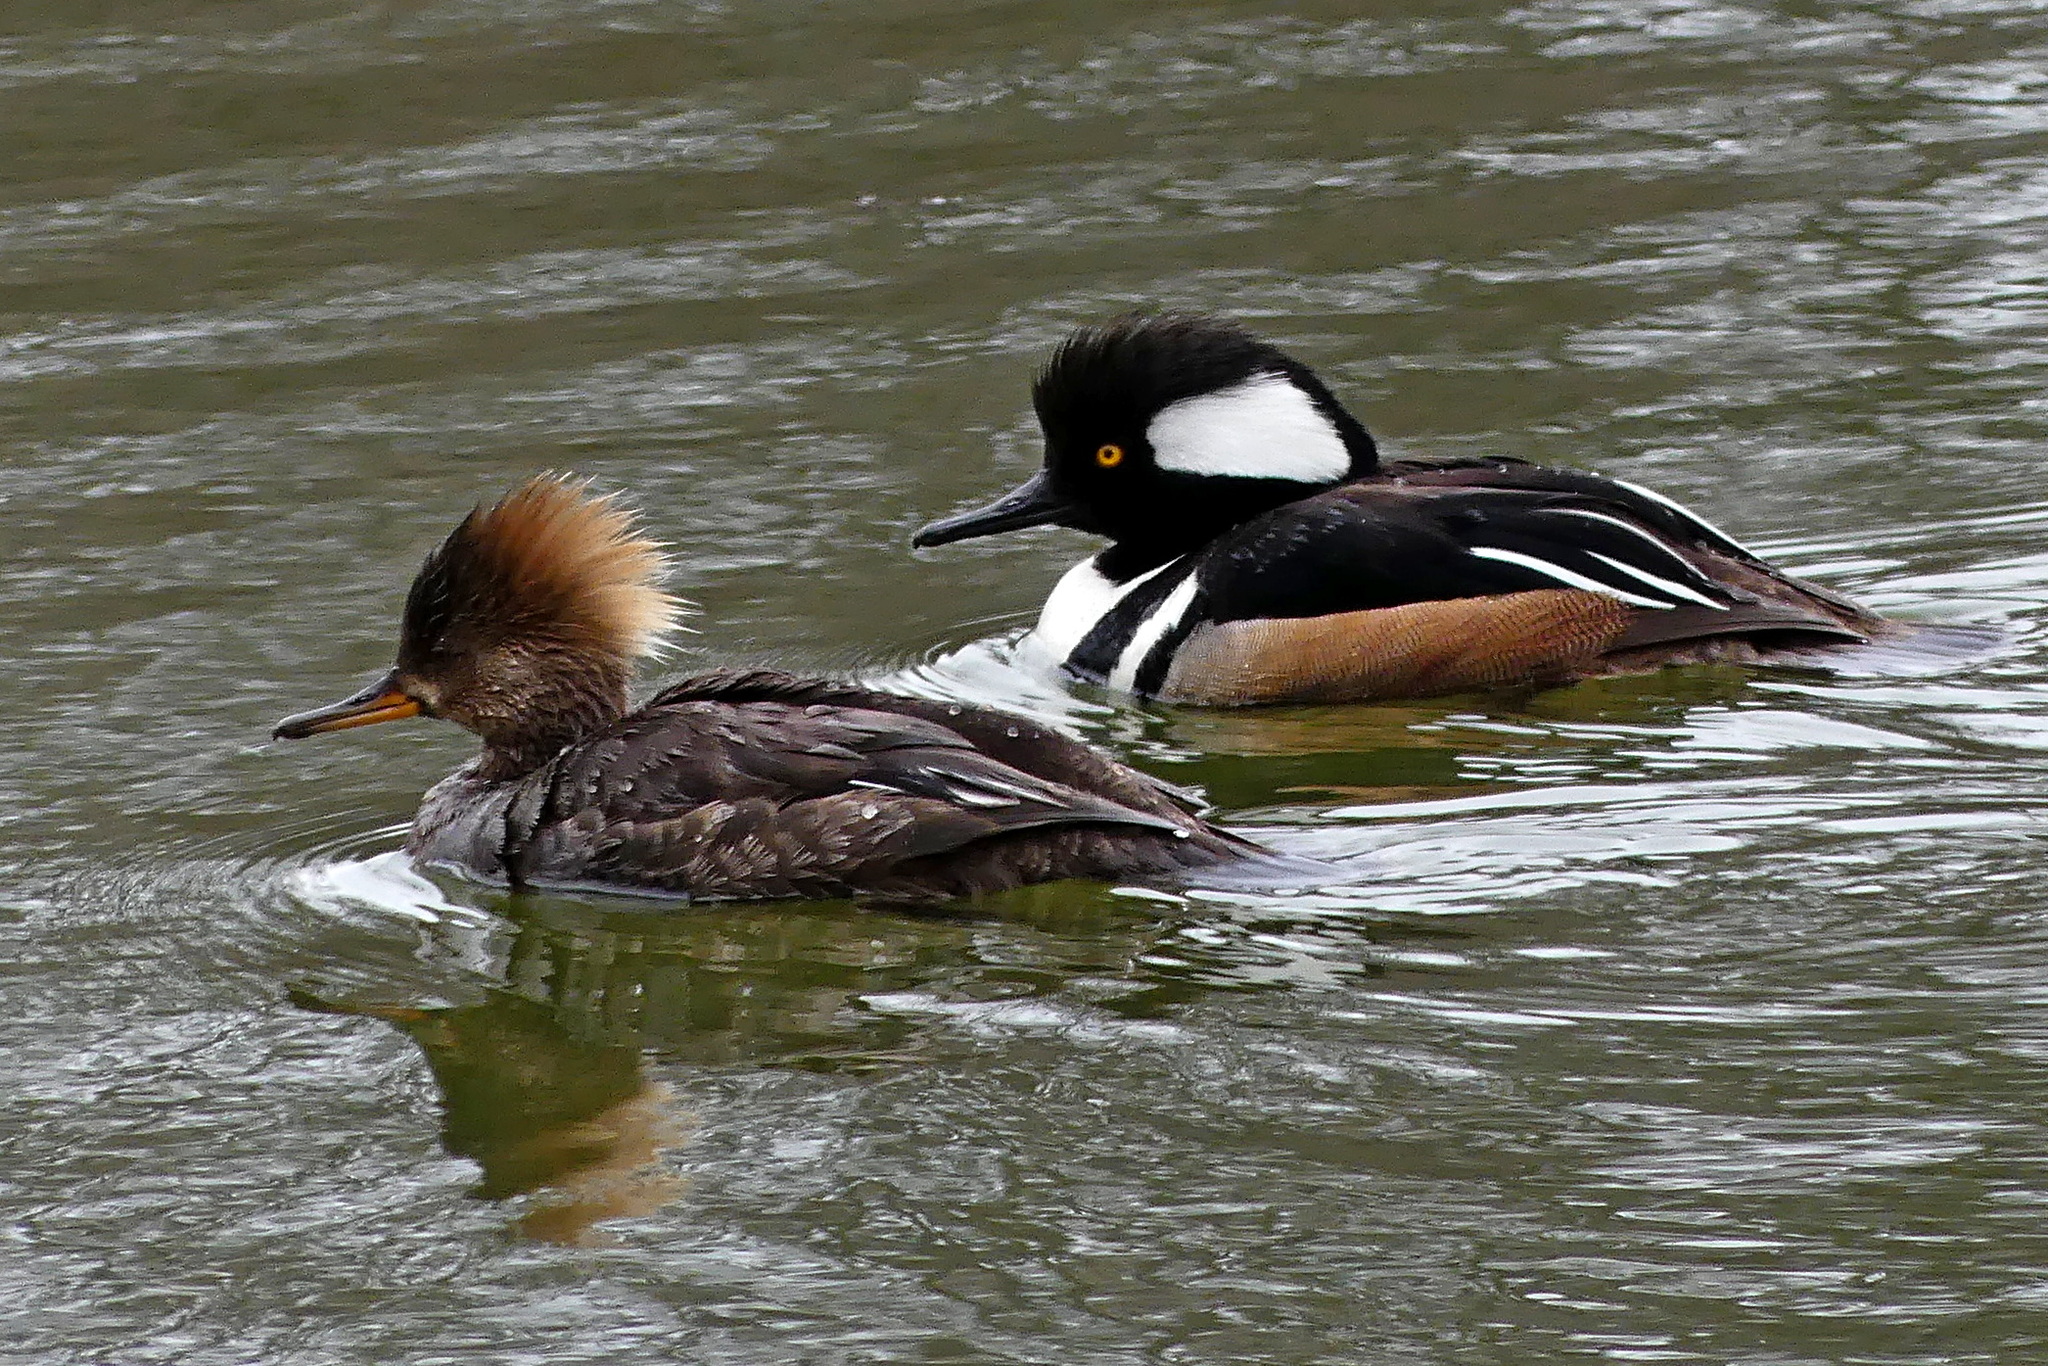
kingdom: Animalia
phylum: Chordata
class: Aves
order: Anseriformes
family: Anatidae
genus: Lophodytes
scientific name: Lophodytes cucullatus
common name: Hooded merganser
